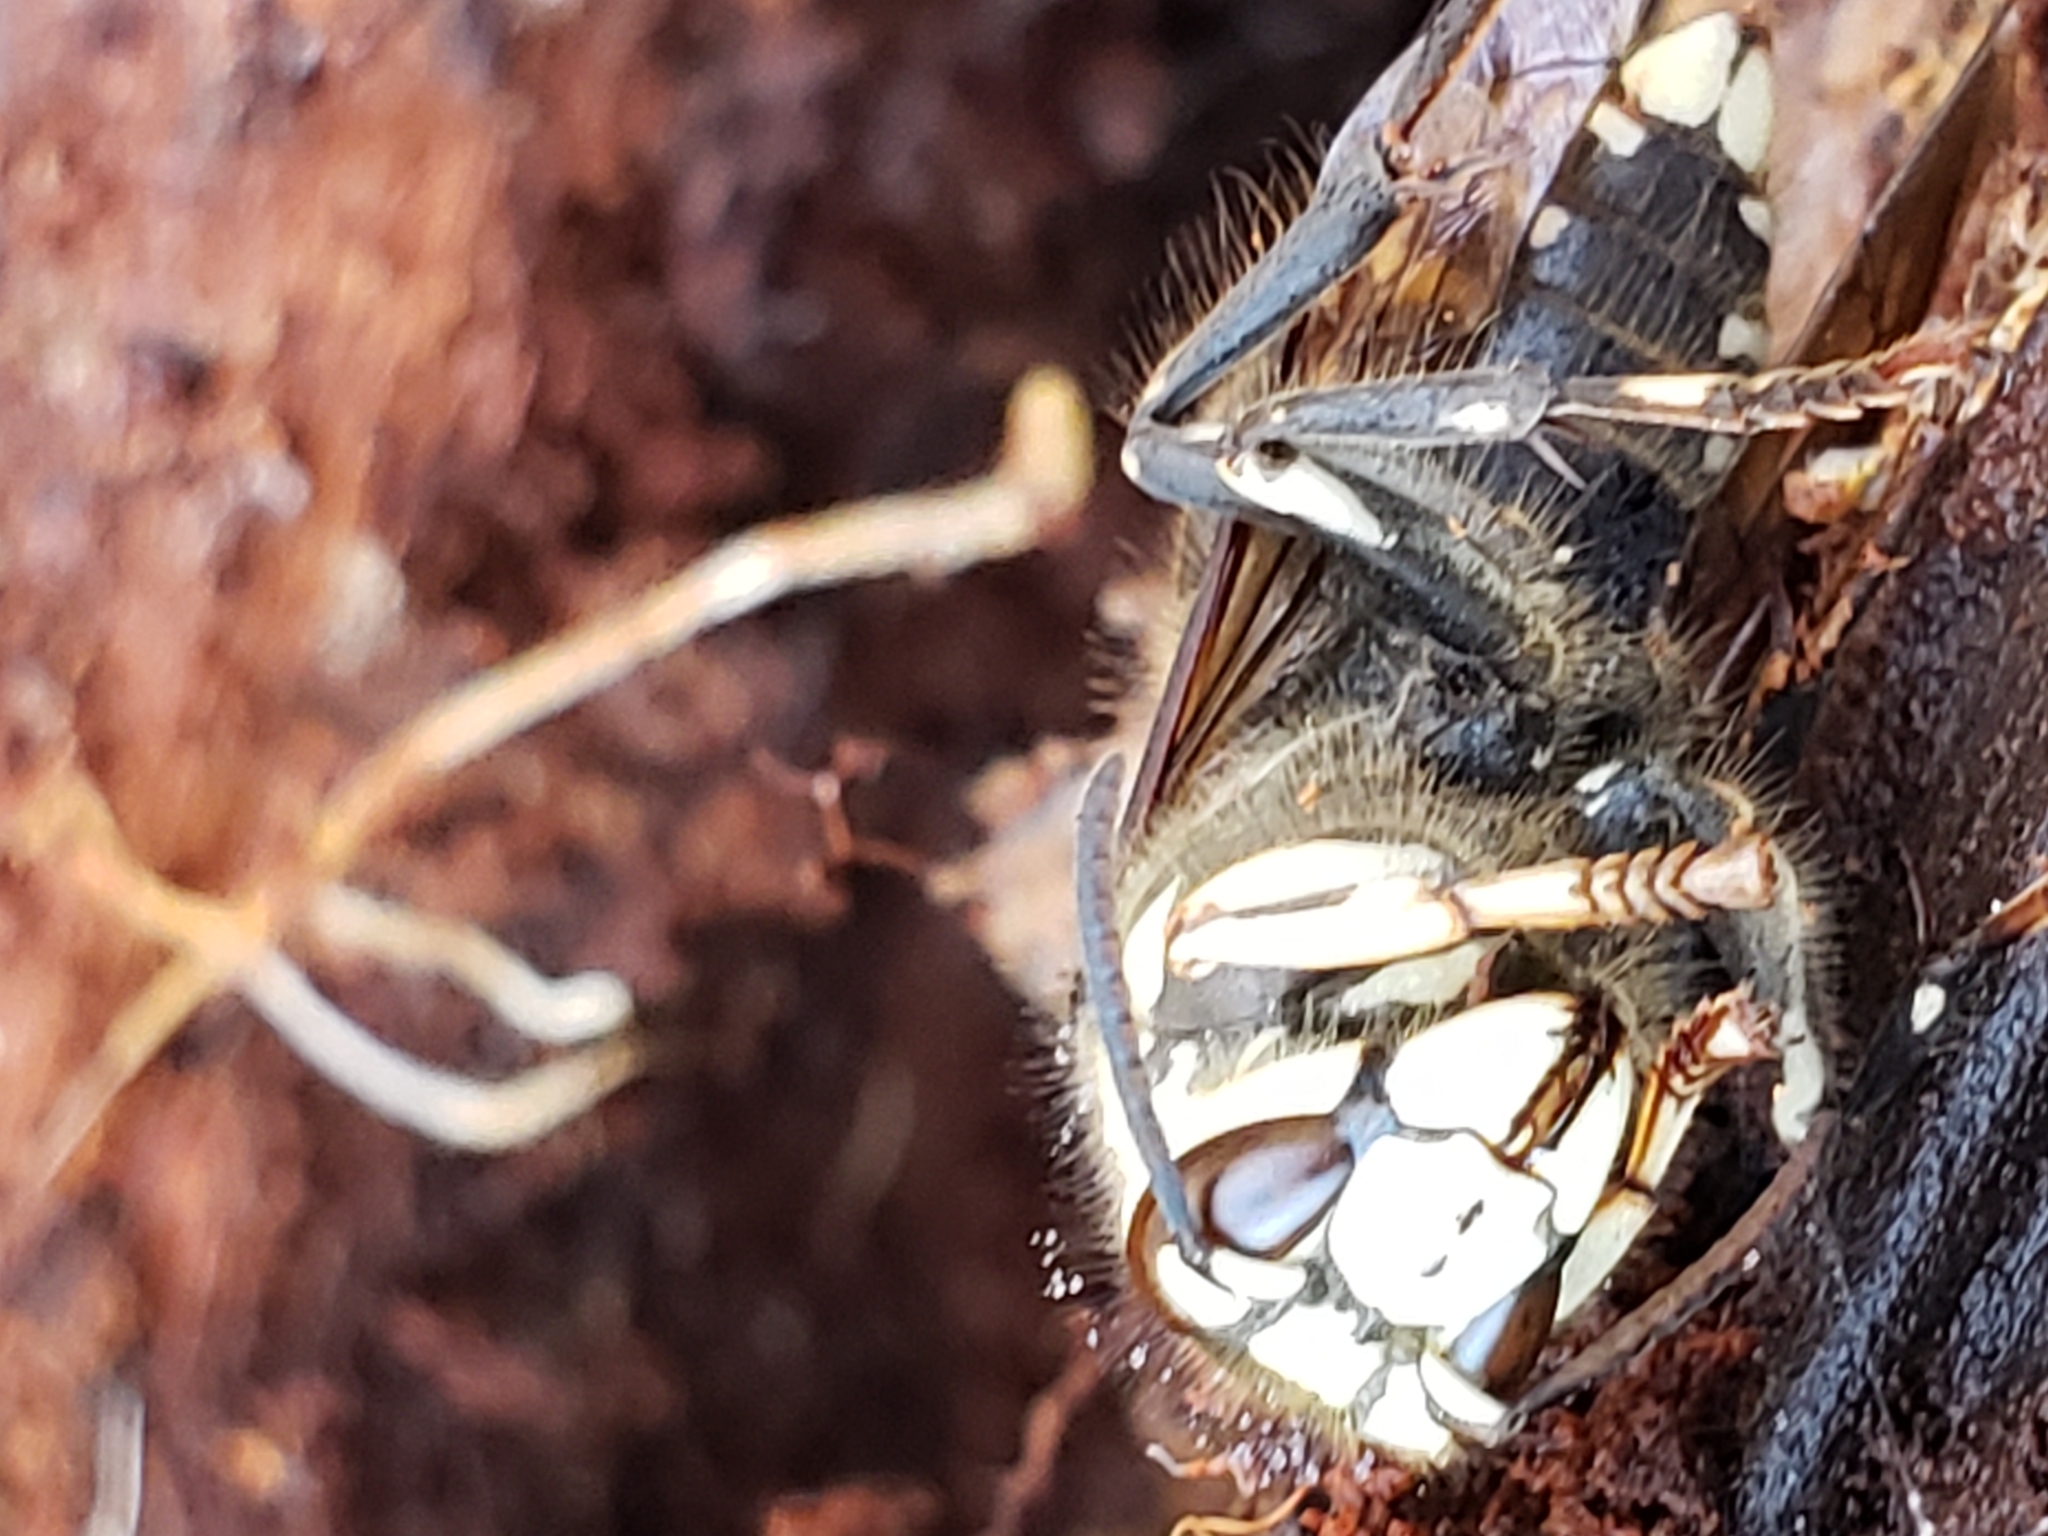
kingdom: Animalia
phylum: Arthropoda
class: Insecta
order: Hymenoptera
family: Vespidae
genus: Dolichovespula
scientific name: Dolichovespula maculata
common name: Bald-faced hornet
